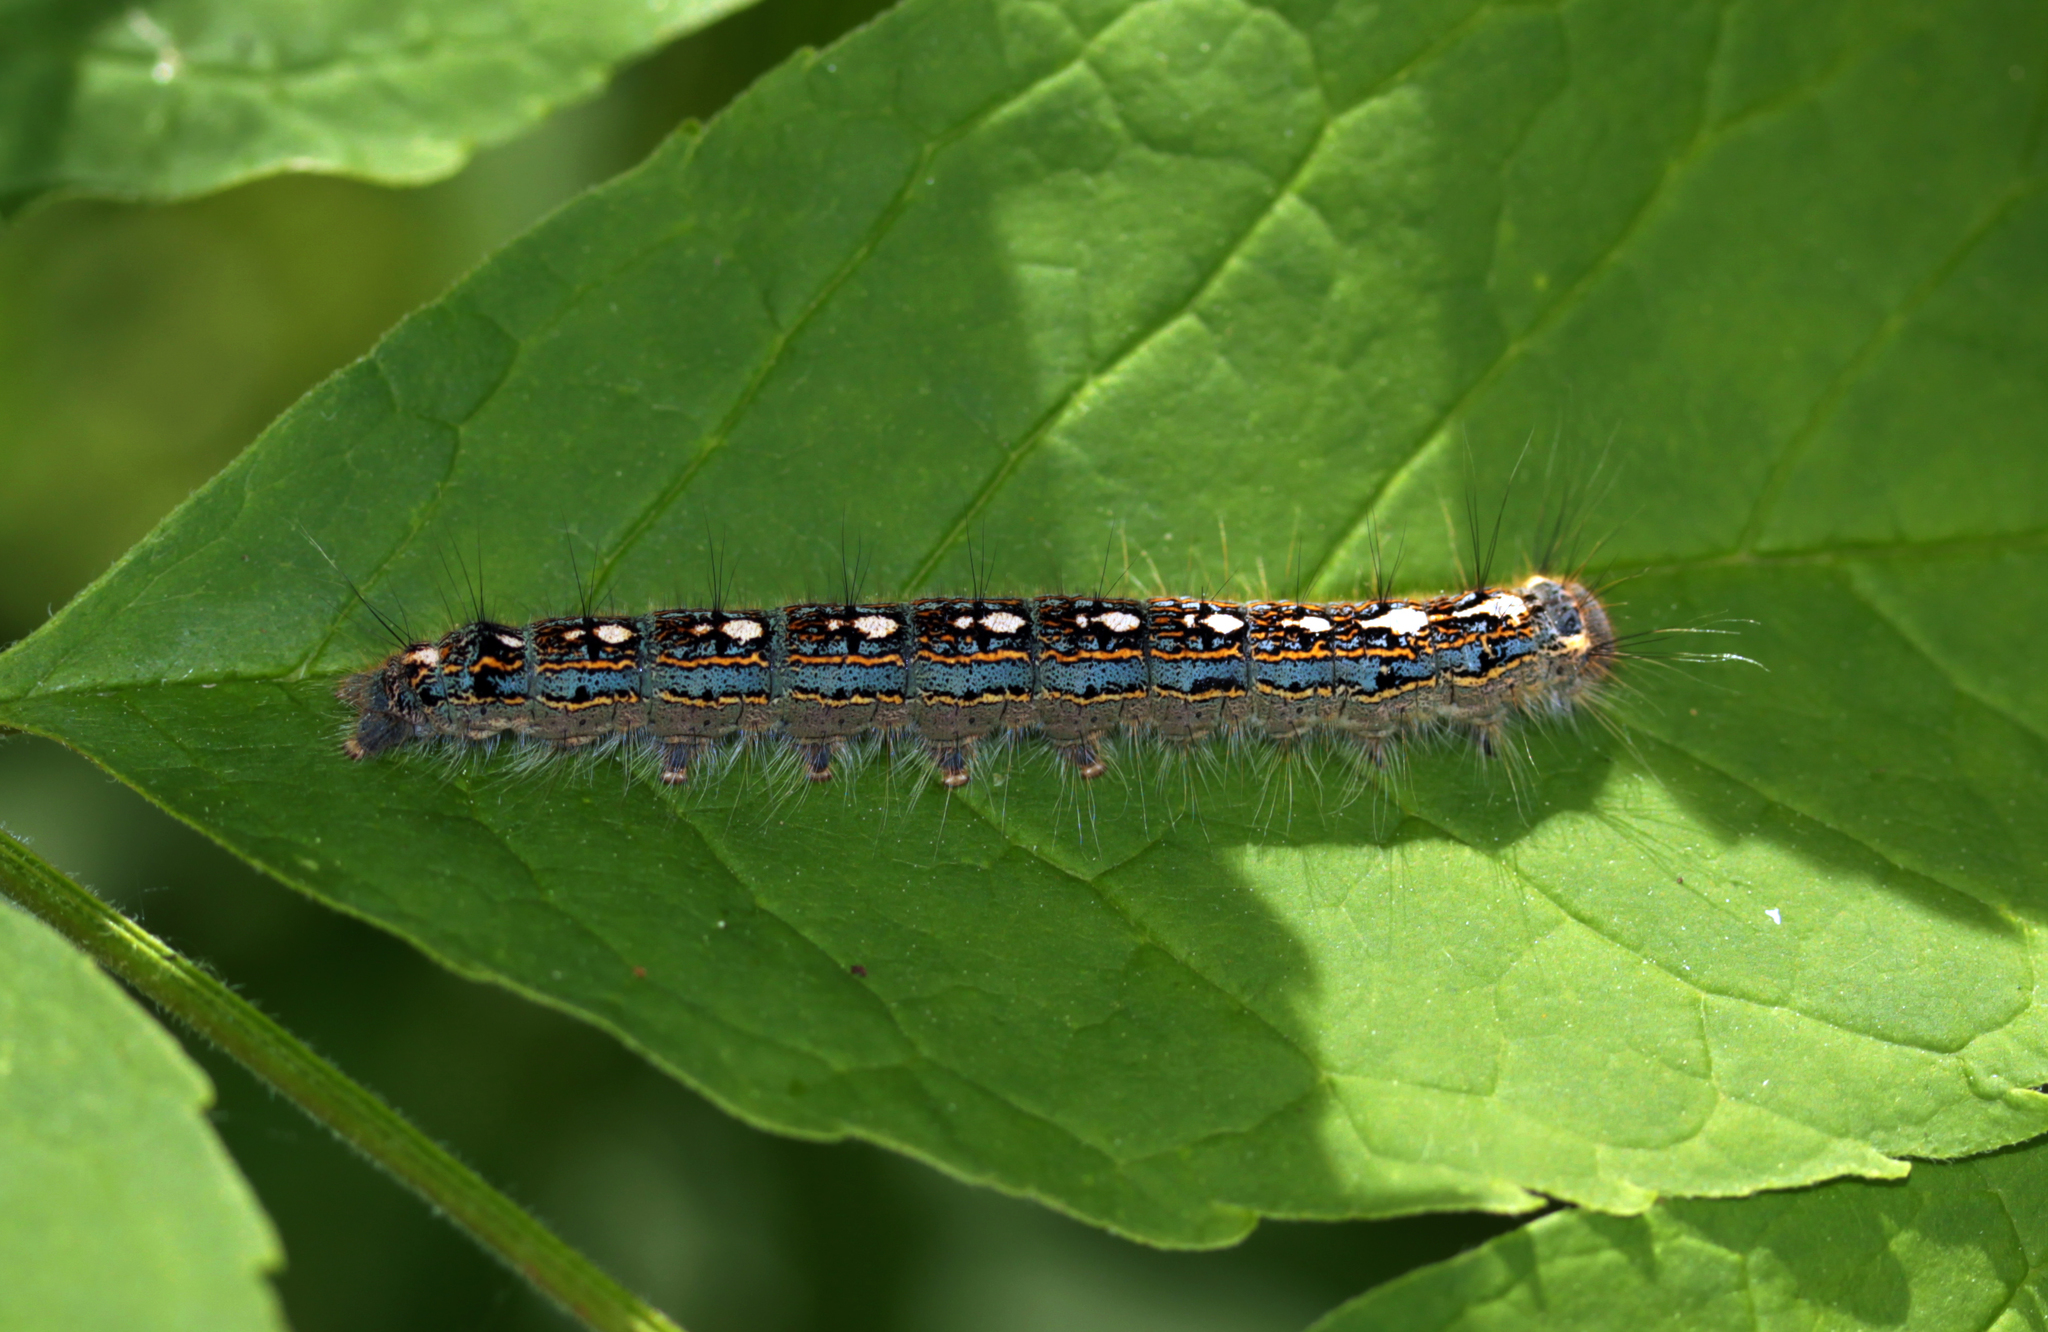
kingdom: Animalia
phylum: Arthropoda
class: Insecta
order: Lepidoptera
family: Lasiocampidae
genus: Malacosoma
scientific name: Malacosoma disstria
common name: Forest tent caterpillar
